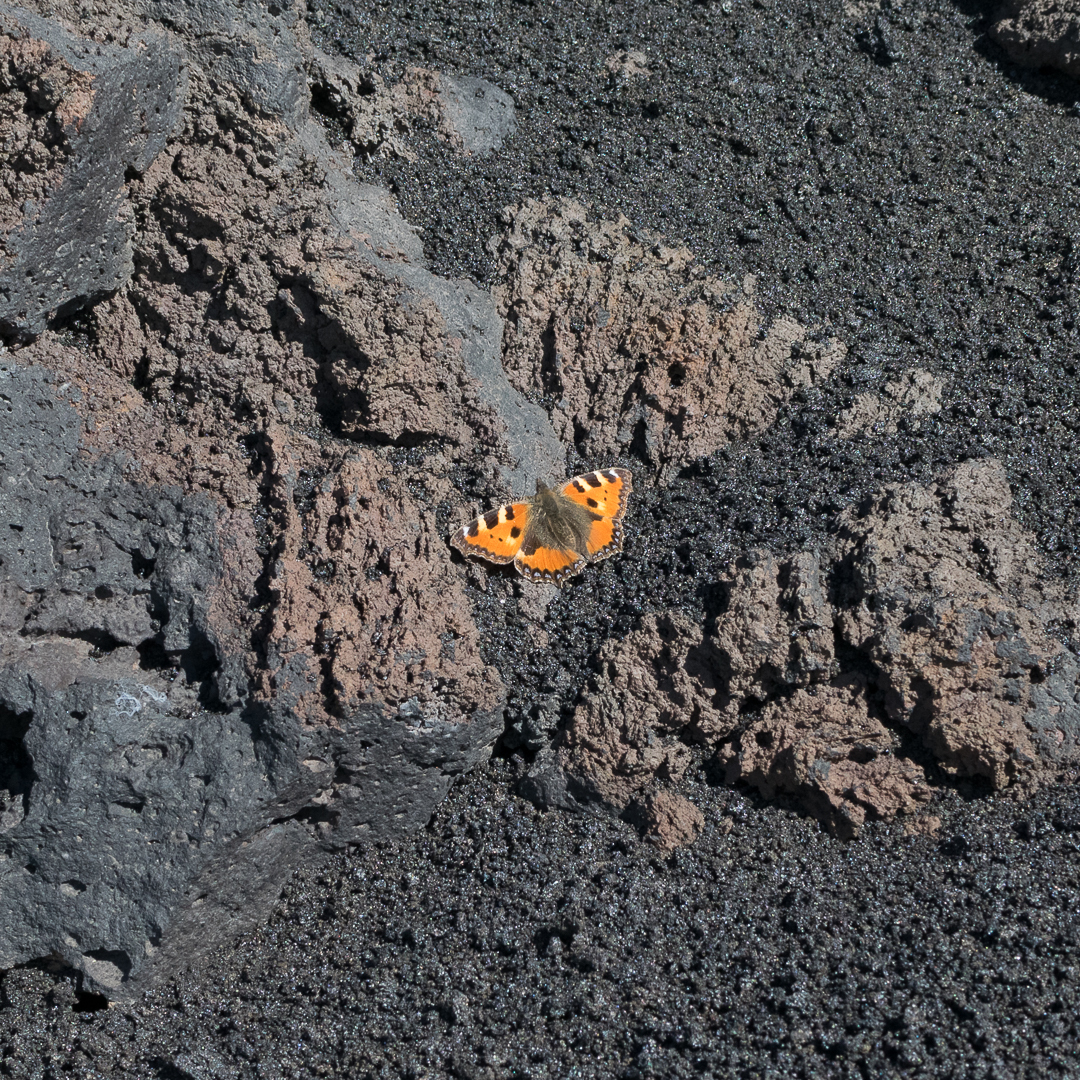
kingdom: Animalia
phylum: Arthropoda
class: Insecta
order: Lepidoptera
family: Nymphalidae
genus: Aglais
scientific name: Aglais urticae
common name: Small tortoiseshell
